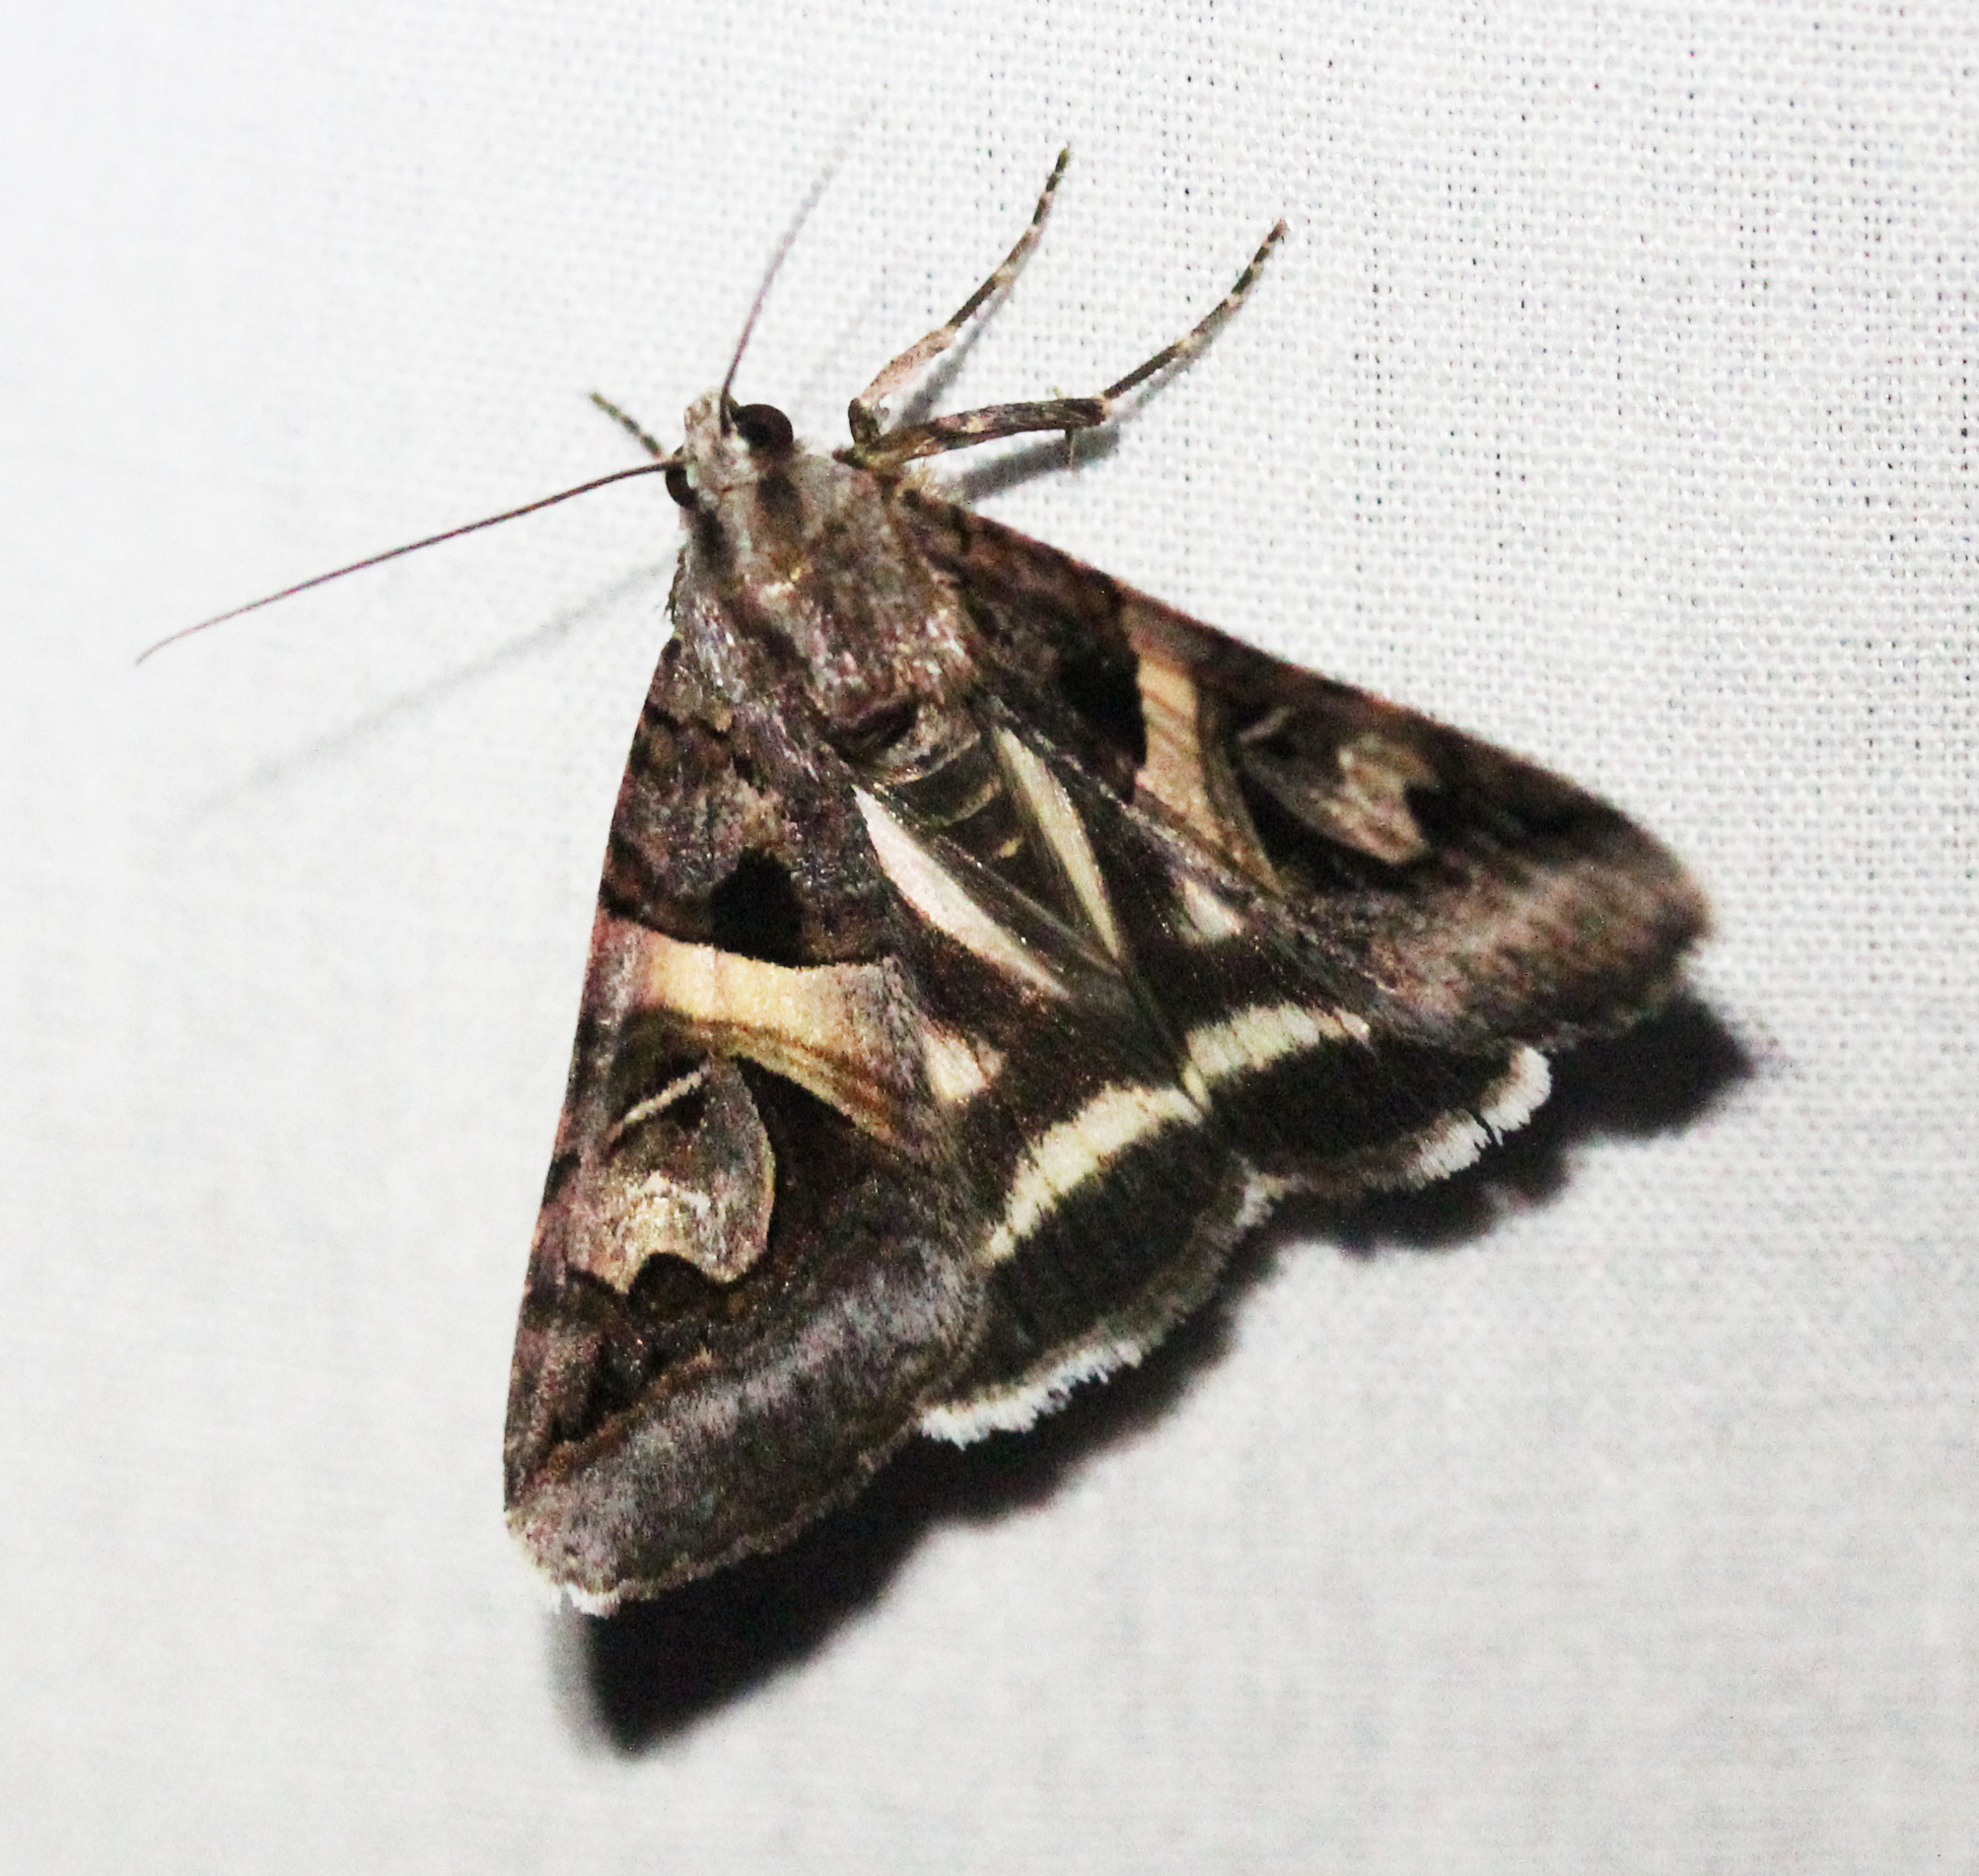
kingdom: Animalia
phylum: Arthropoda
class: Insecta
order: Lepidoptera
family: Erebidae
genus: Drasteria
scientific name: Drasteria grandirena
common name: Figure-seven moth
